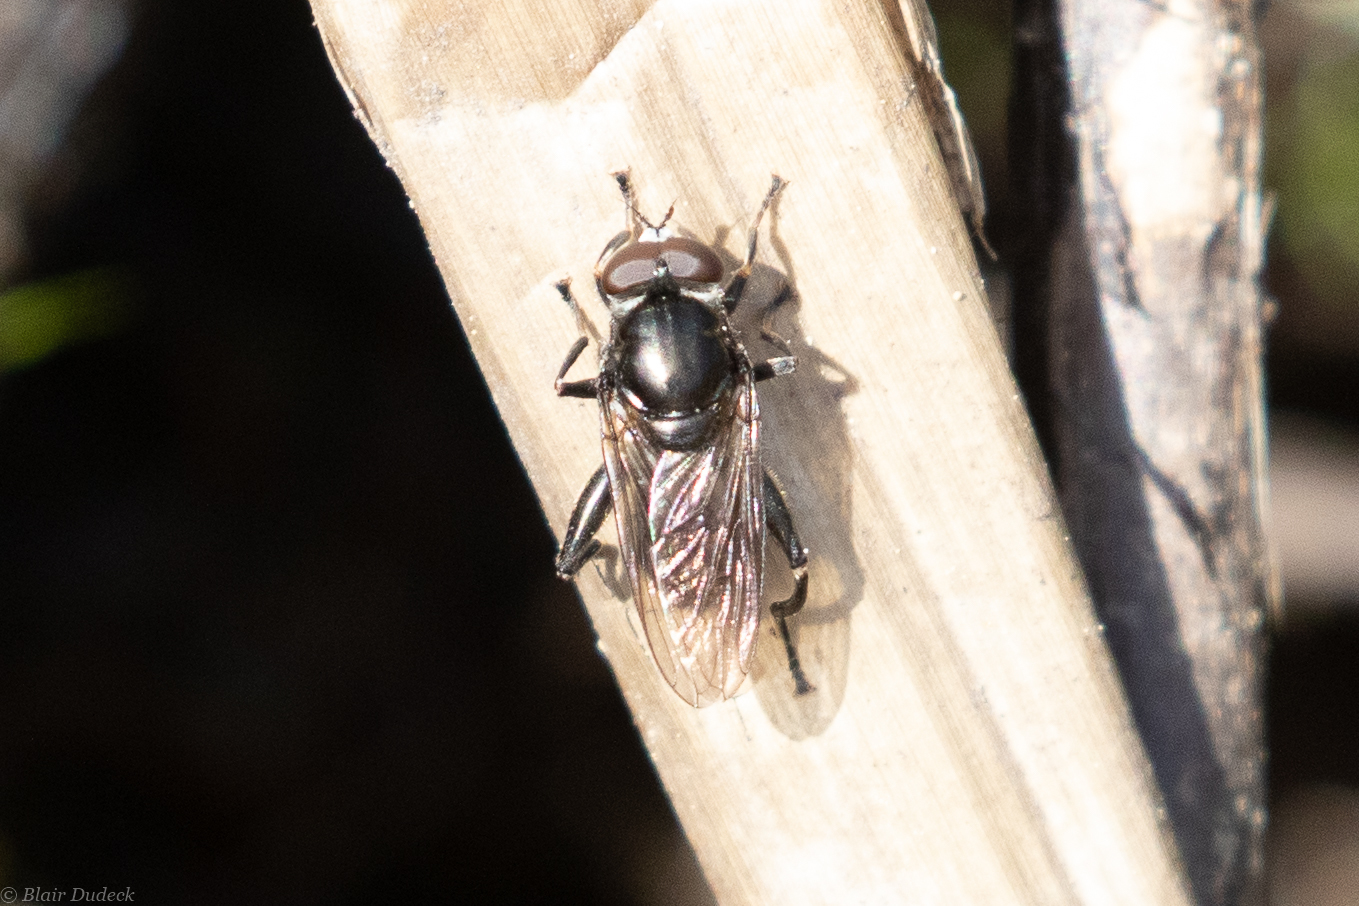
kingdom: Animalia
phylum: Arthropoda
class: Insecta
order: Diptera
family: Syrphidae
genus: Tropidia
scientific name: Tropidia quadrata
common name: Common thick-legged fly
